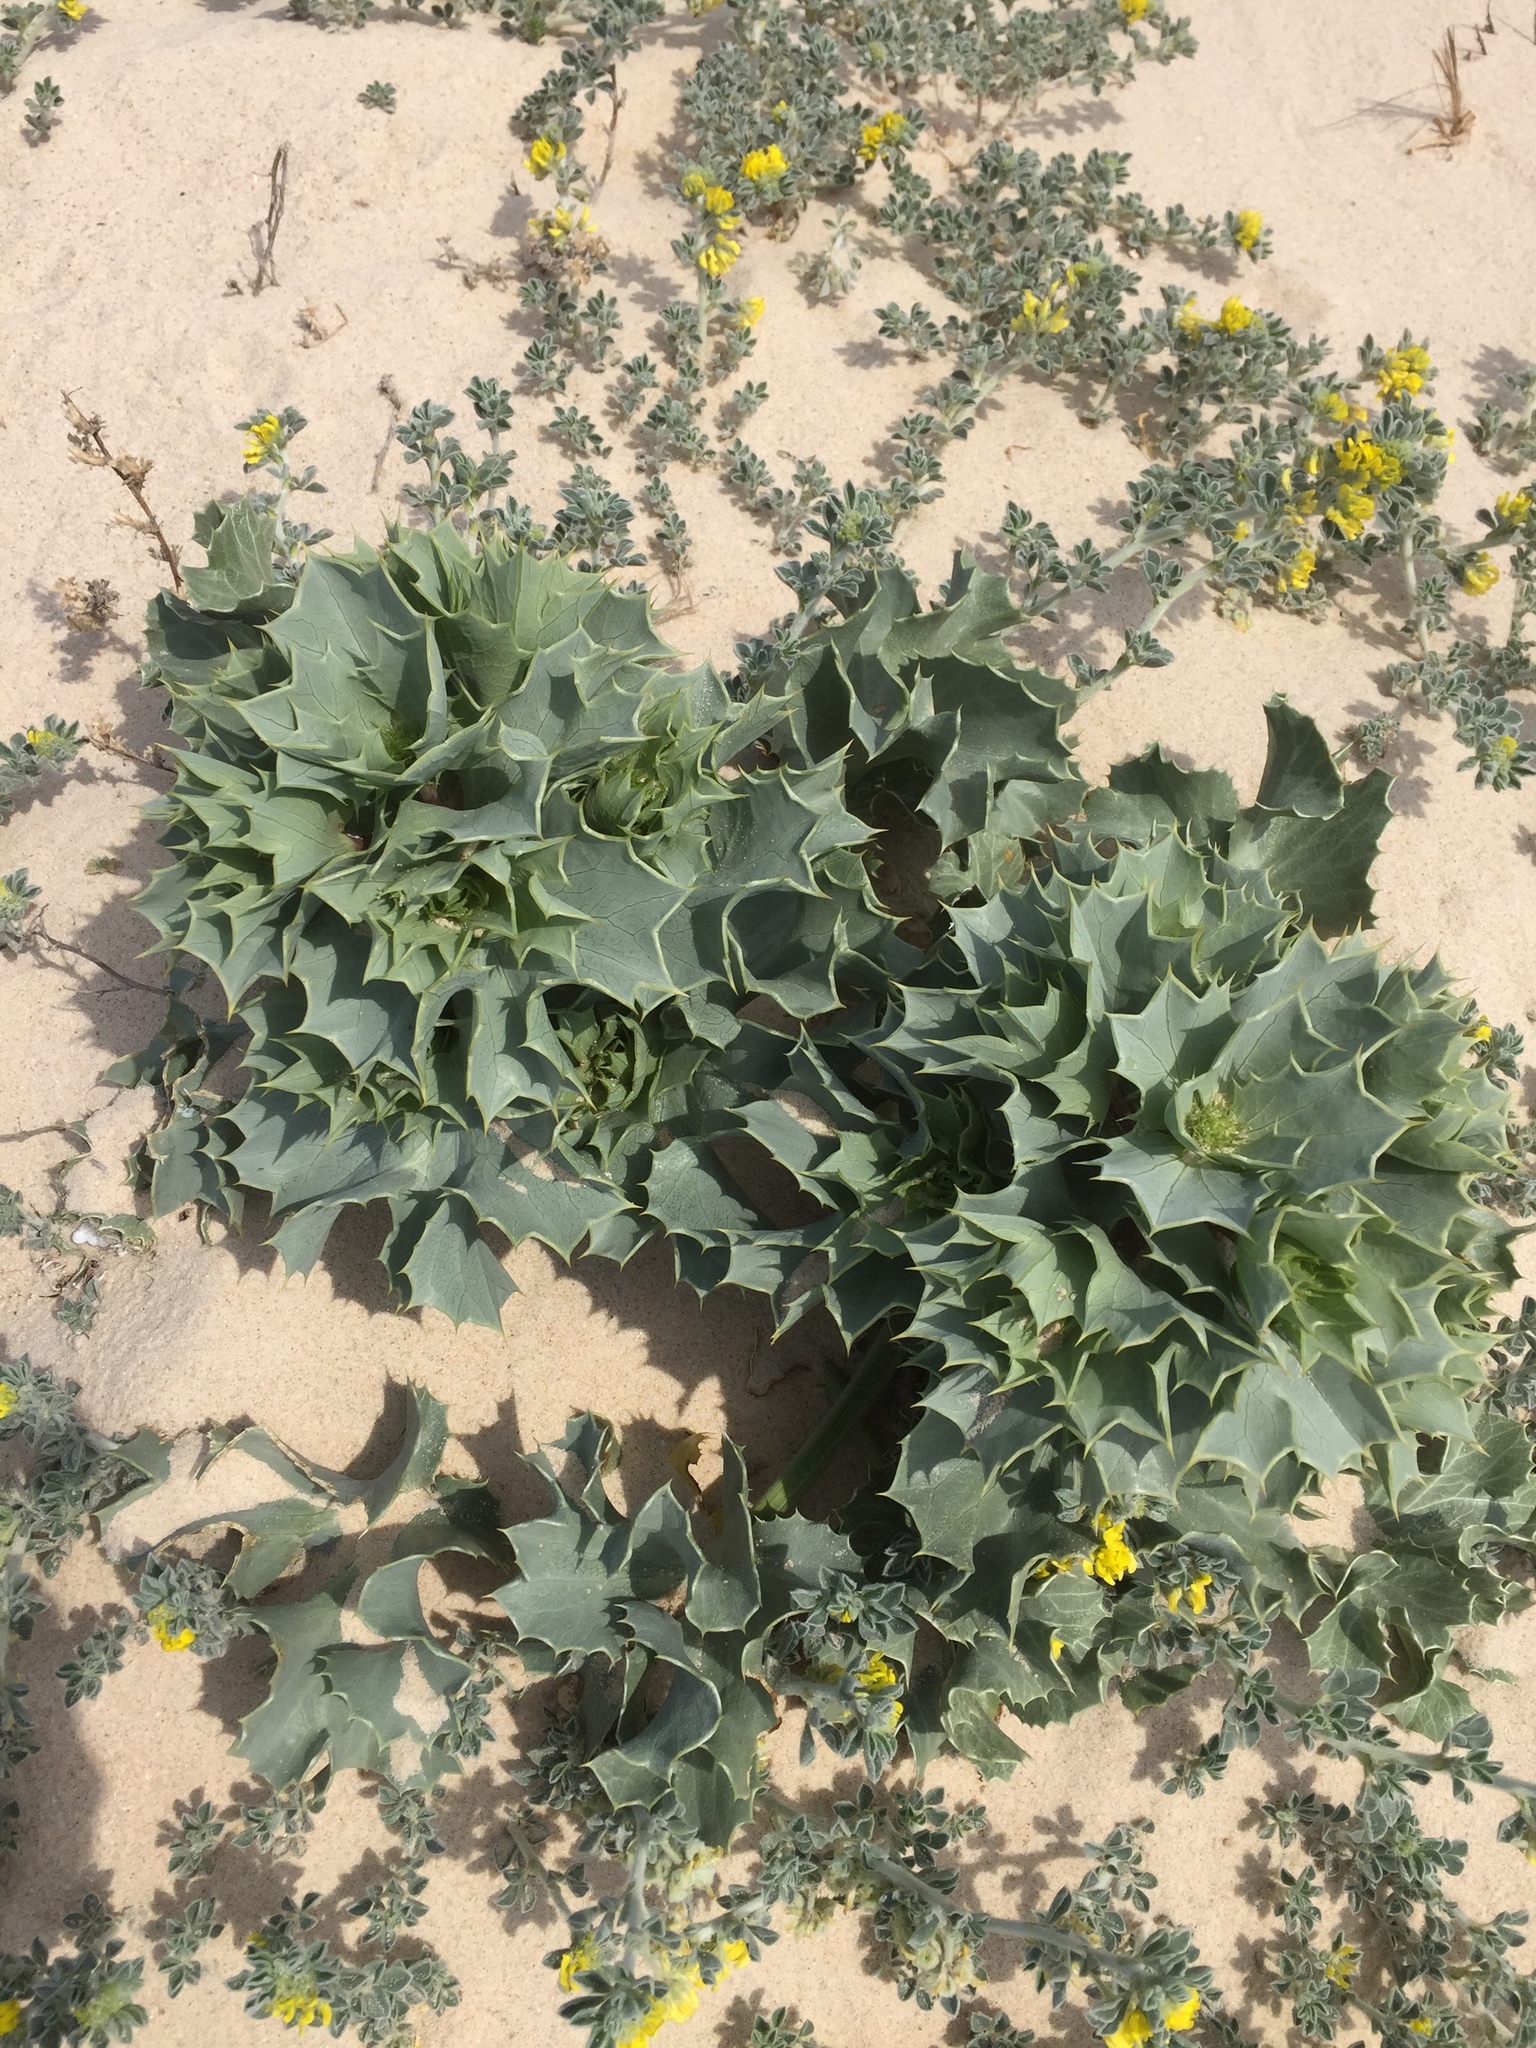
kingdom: Plantae
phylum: Tracheophyta
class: Magnoliopsida
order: Apiales
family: Apiaceae
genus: Eryngium
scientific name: Eryngium maritimum
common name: Sea-holly
